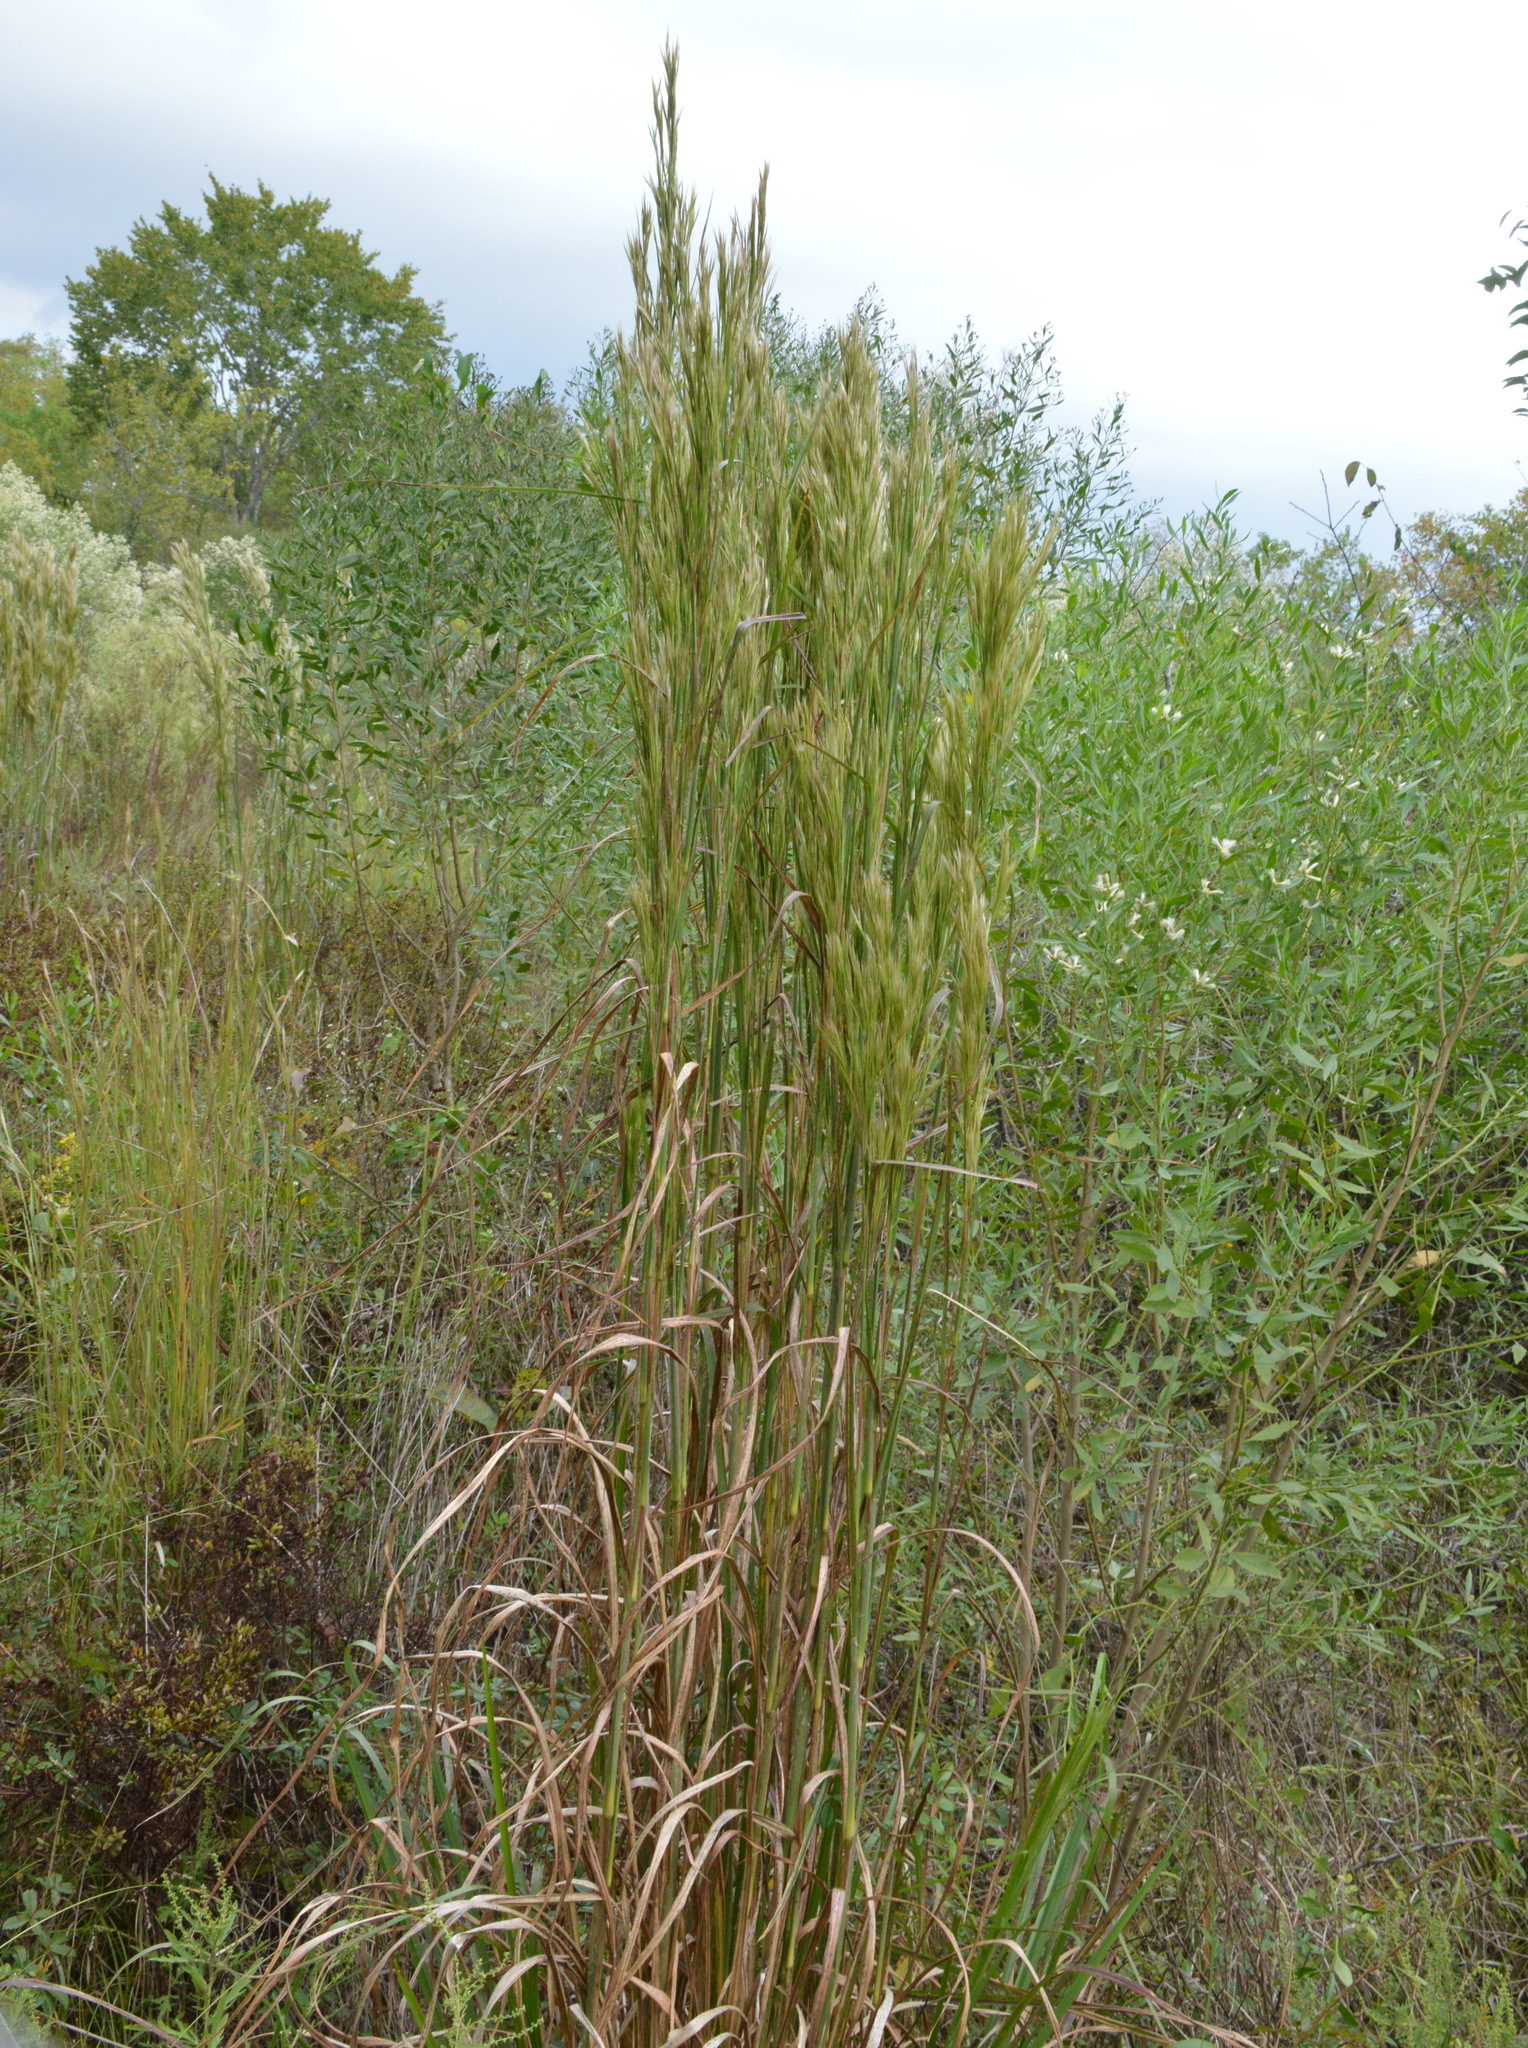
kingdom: Plantae
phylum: Tracheophyta
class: Liliopsida
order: Poales
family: Poaceae
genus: Andropogon
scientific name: Andropogon tenuispatheus
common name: Bushy bluestem
